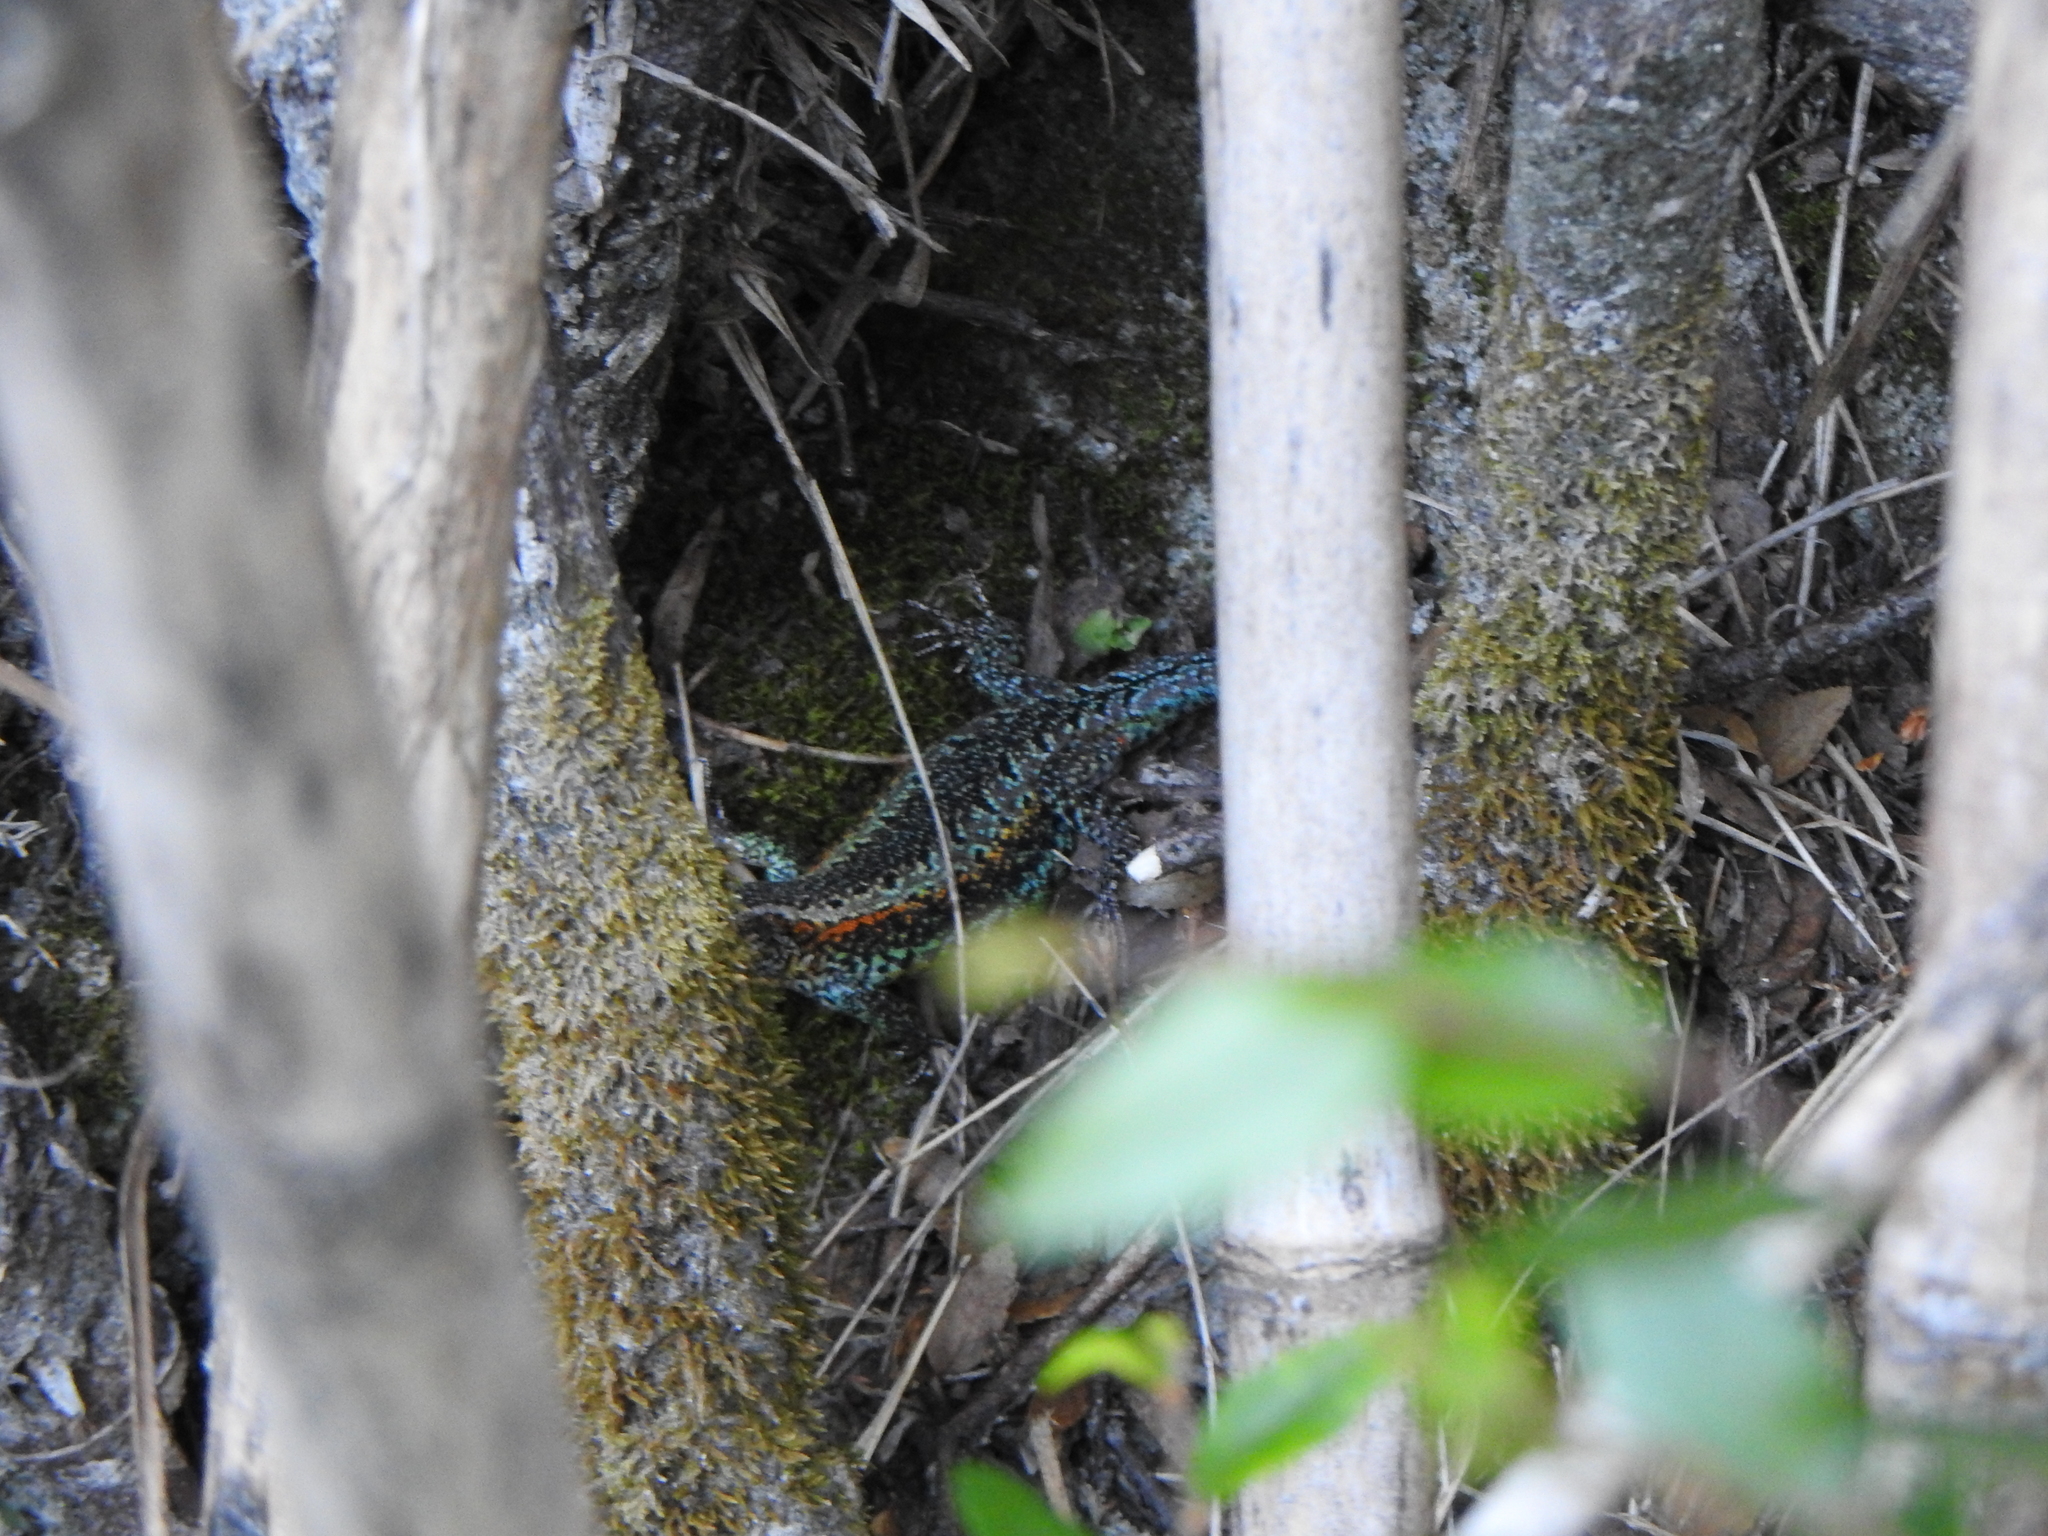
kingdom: Animalia
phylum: Chordata
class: Squamata
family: Liolaemidae
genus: Liolaemus
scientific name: Liolaemus pictus
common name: Painted tree iguana
